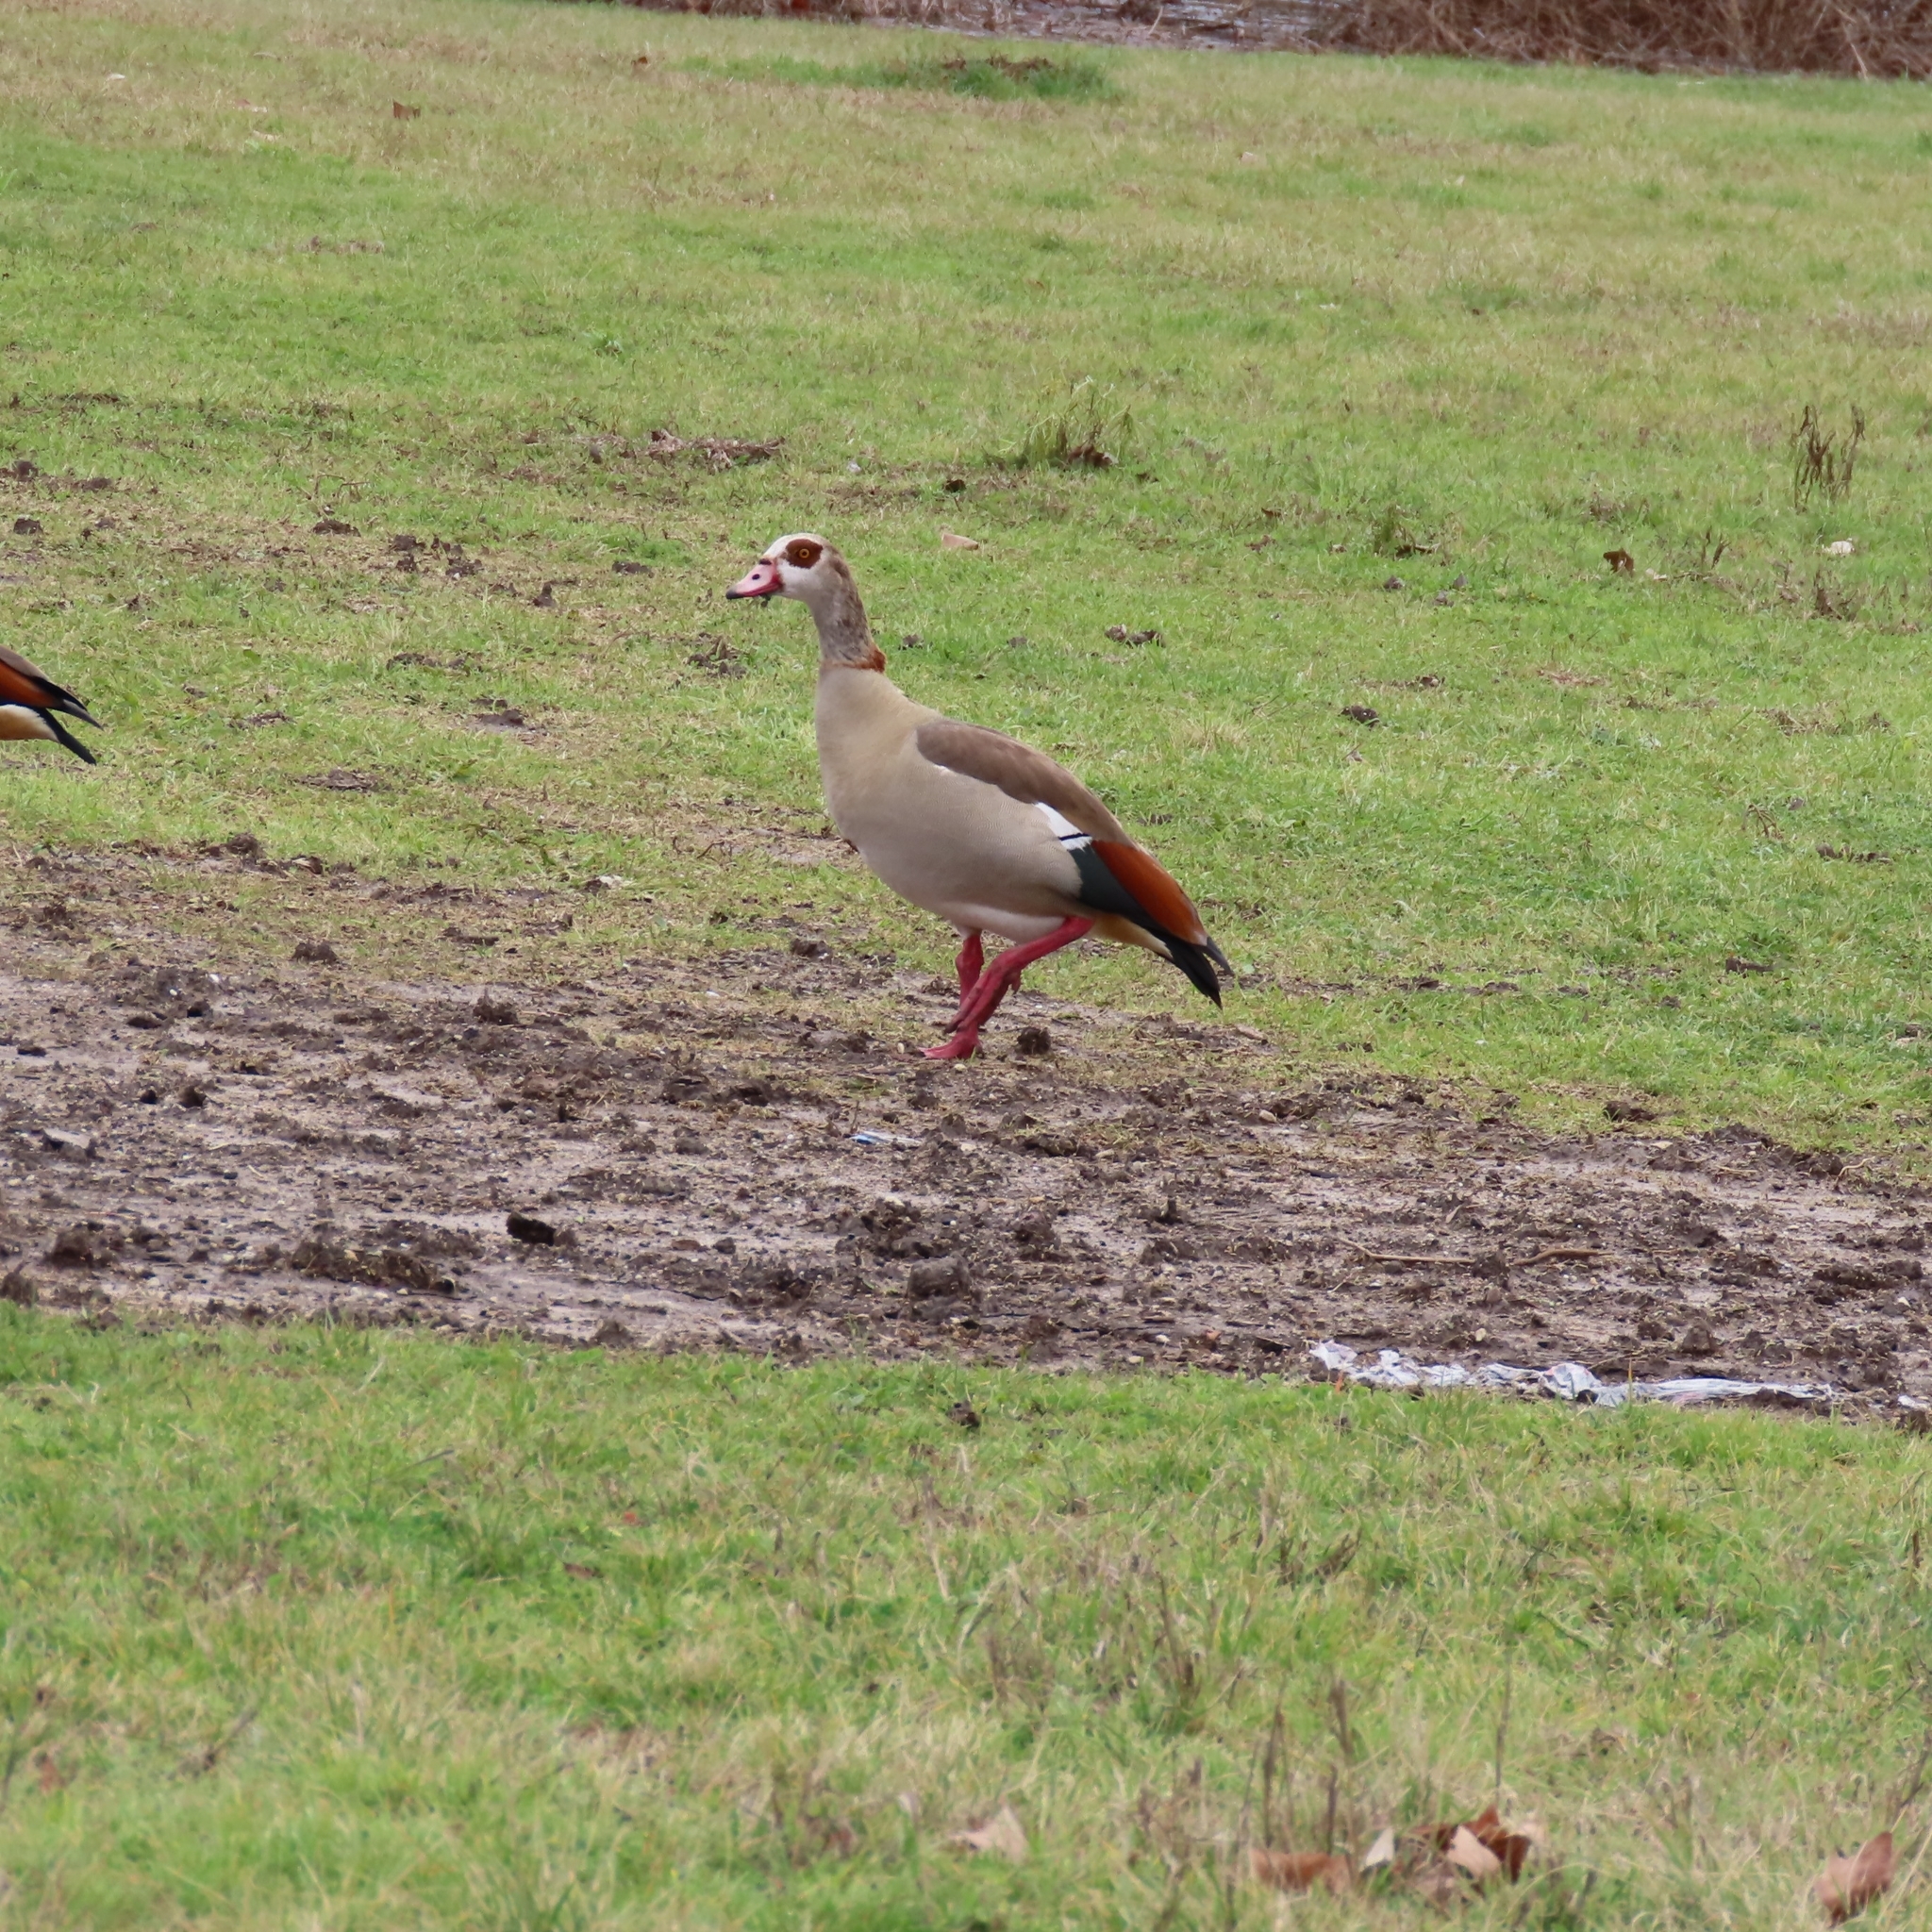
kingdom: Animalia
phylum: Chordata
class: Aves
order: Anseriformes
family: Anatidae
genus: Alopochen
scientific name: Alopochen aegyptiaca
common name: Egyptian goose
